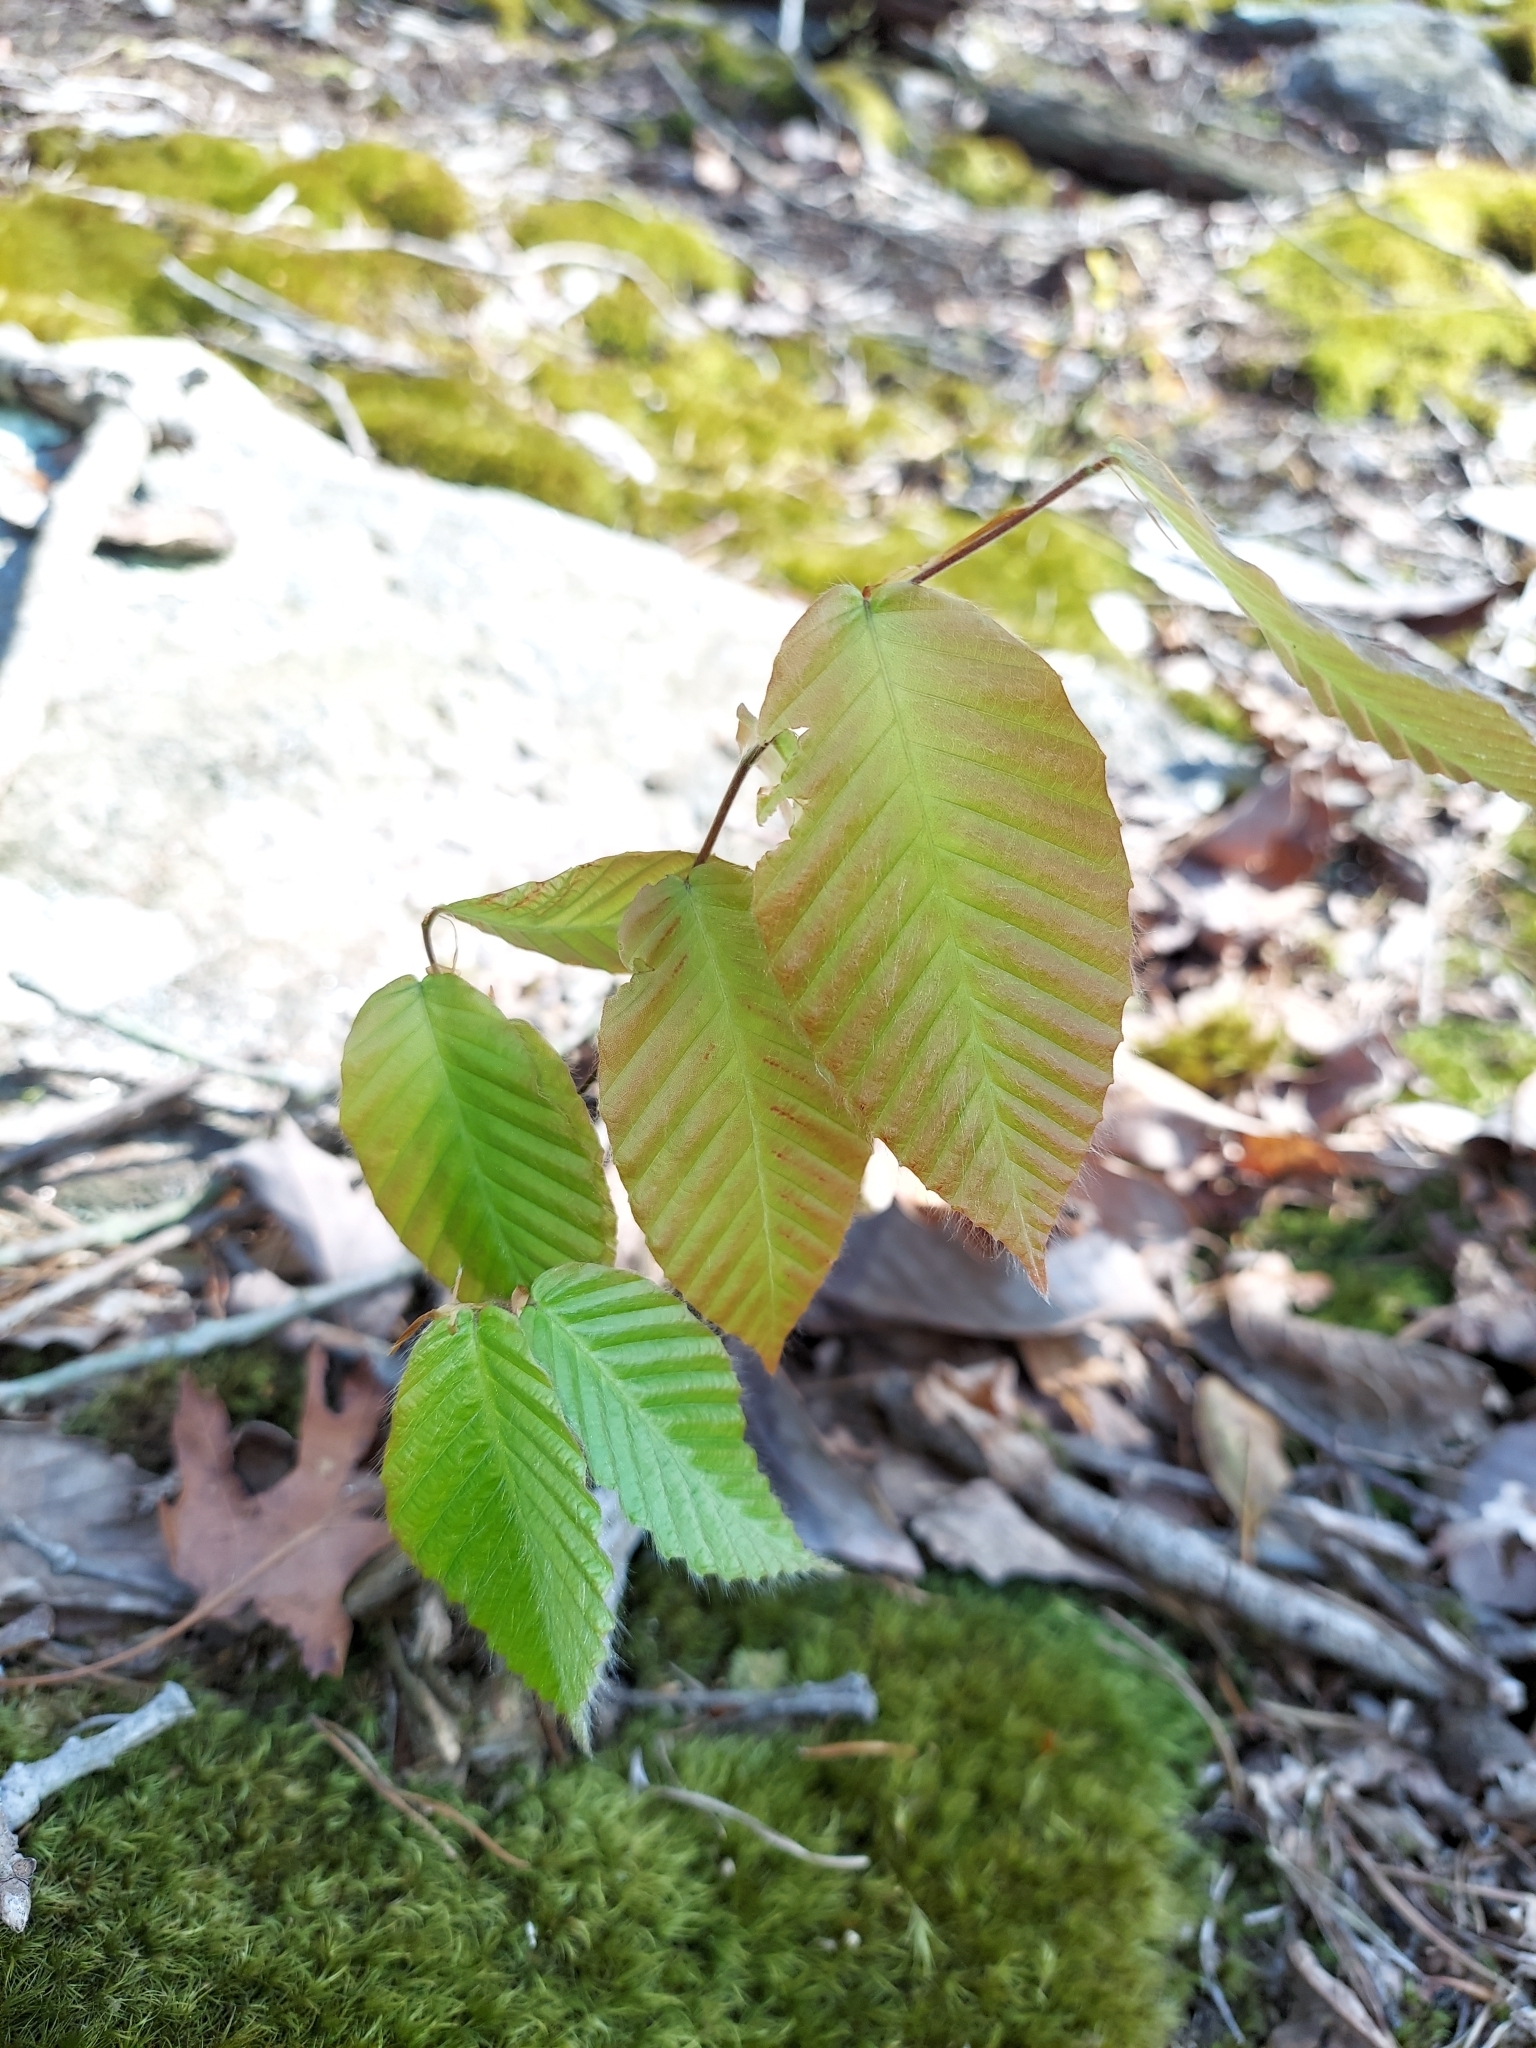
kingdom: Plantae
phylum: Tracheophyta
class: Magnoliopsida
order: Fagales
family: Fagaceae
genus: Fagus
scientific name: Fagus grandifolia
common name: American beech
